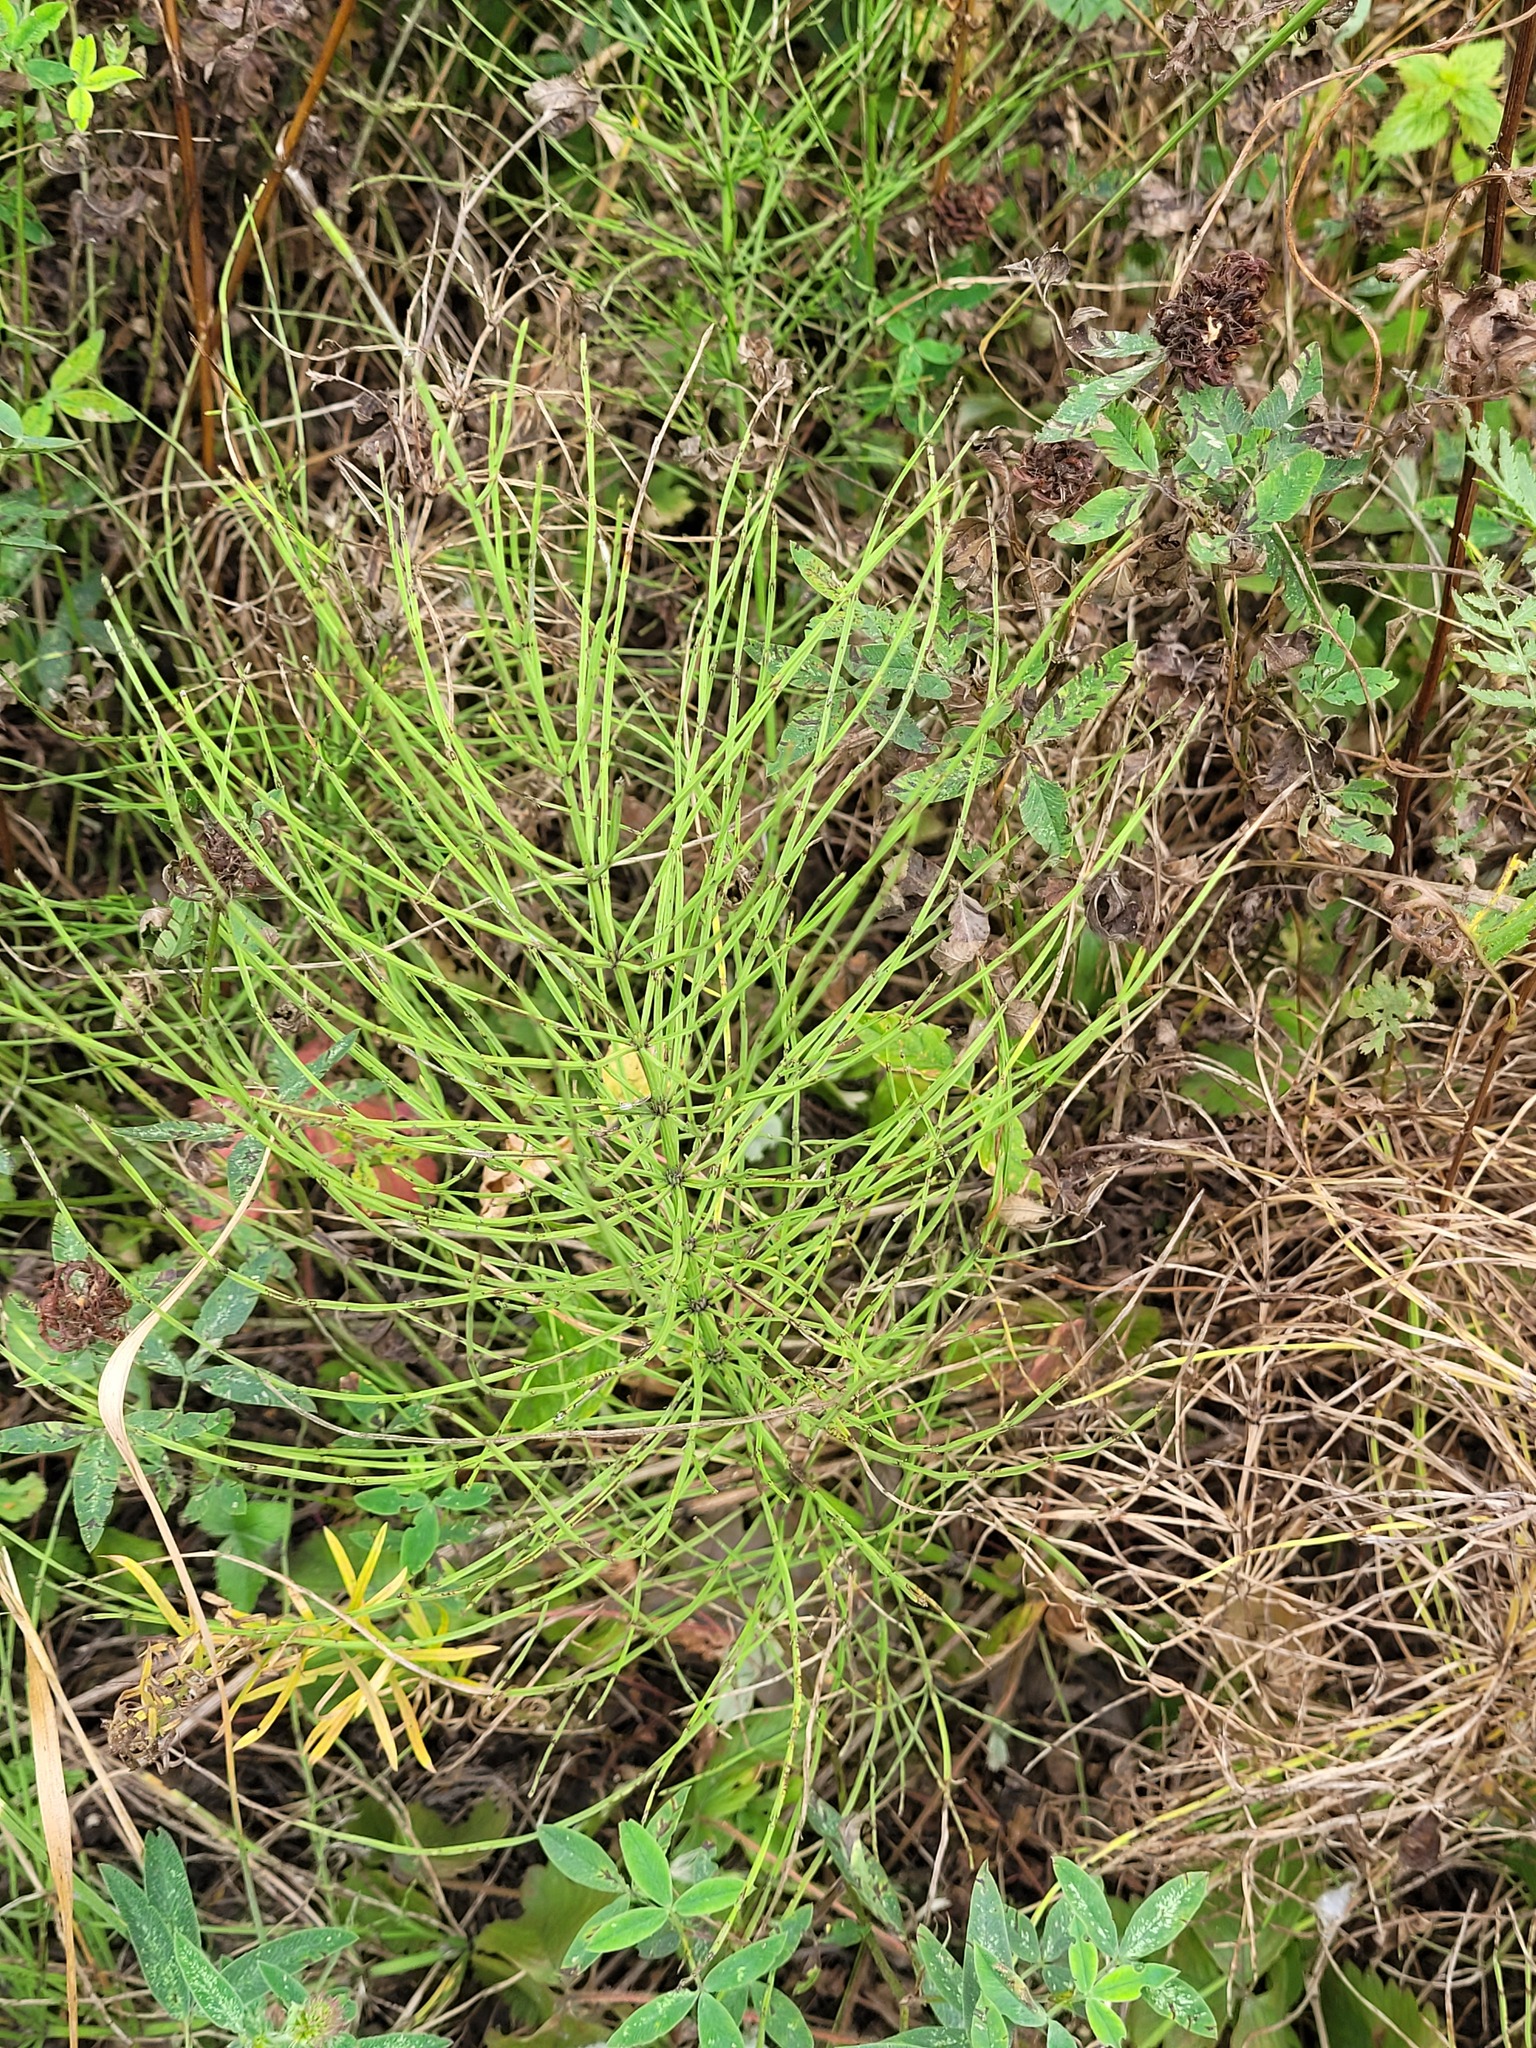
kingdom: Plantae
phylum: Tracheophyta
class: Polypodiopsida
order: Equisetales
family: Equisetaceae
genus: Equisetum
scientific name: Equisetum arvense
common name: Field horsetail
